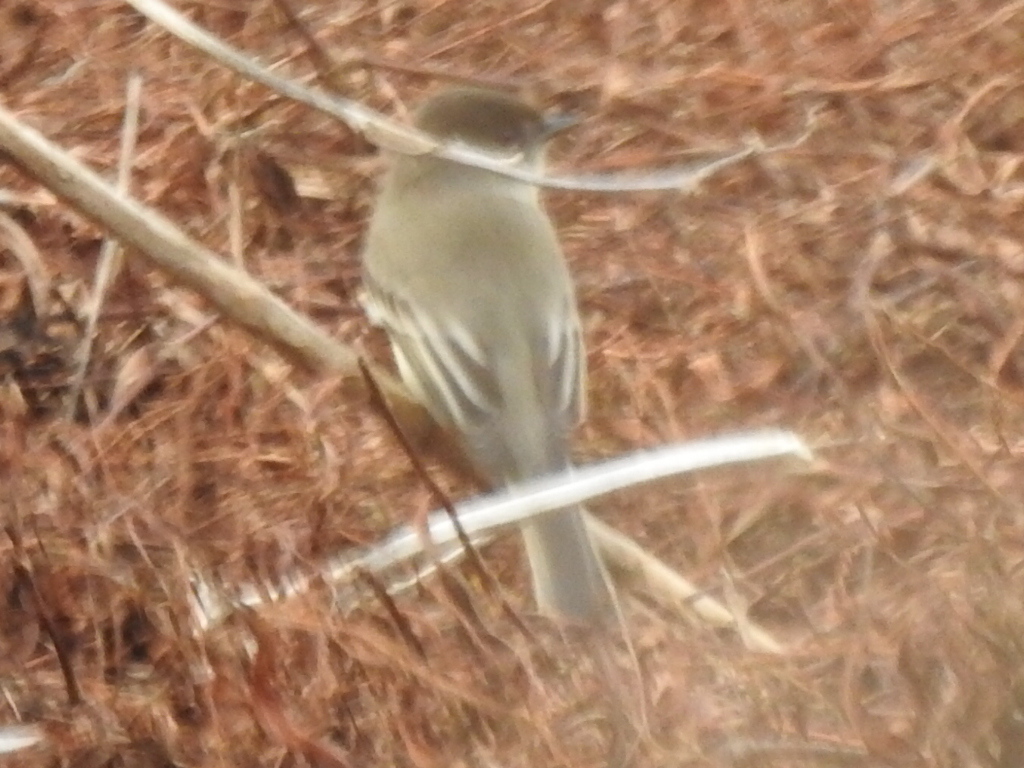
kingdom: Animalia
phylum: Chordata
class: Aves
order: Passeriformes
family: Tyrannidae
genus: Sayornis
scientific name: Sayornis phoebe
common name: Eastern phoebe
